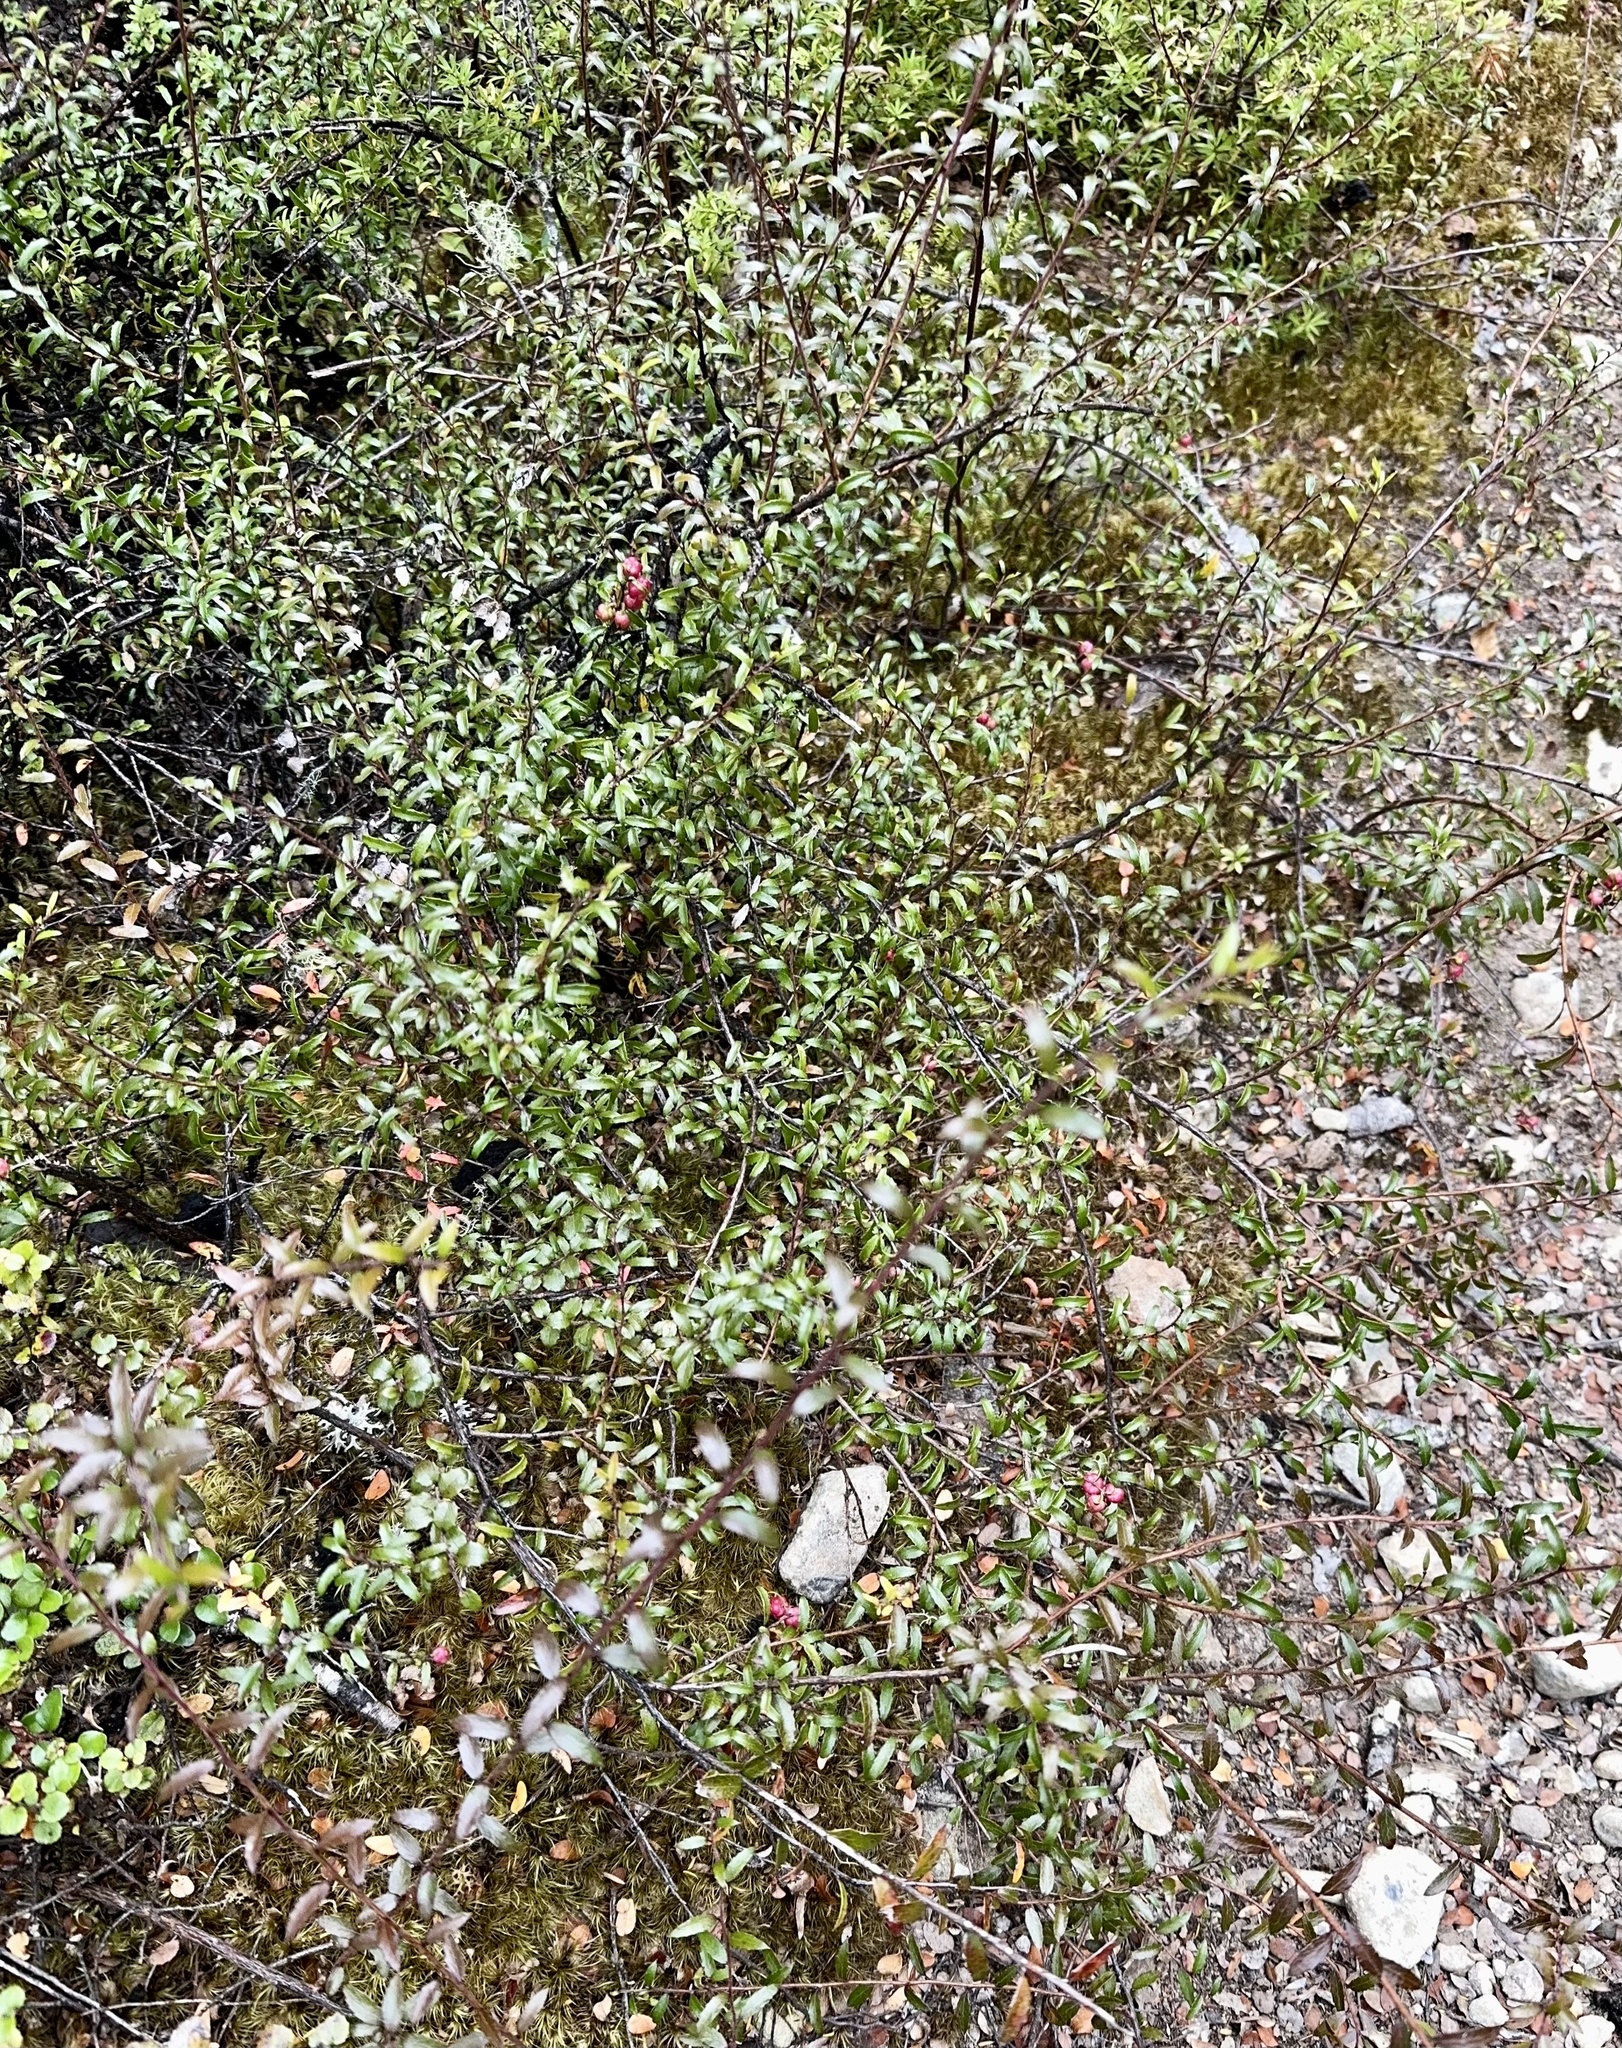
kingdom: Plantae
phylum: Tracheophyta
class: Magnoliopsida
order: Ericales
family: Ericaceae
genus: Gaultheria
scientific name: Gaultheria macrostigma
